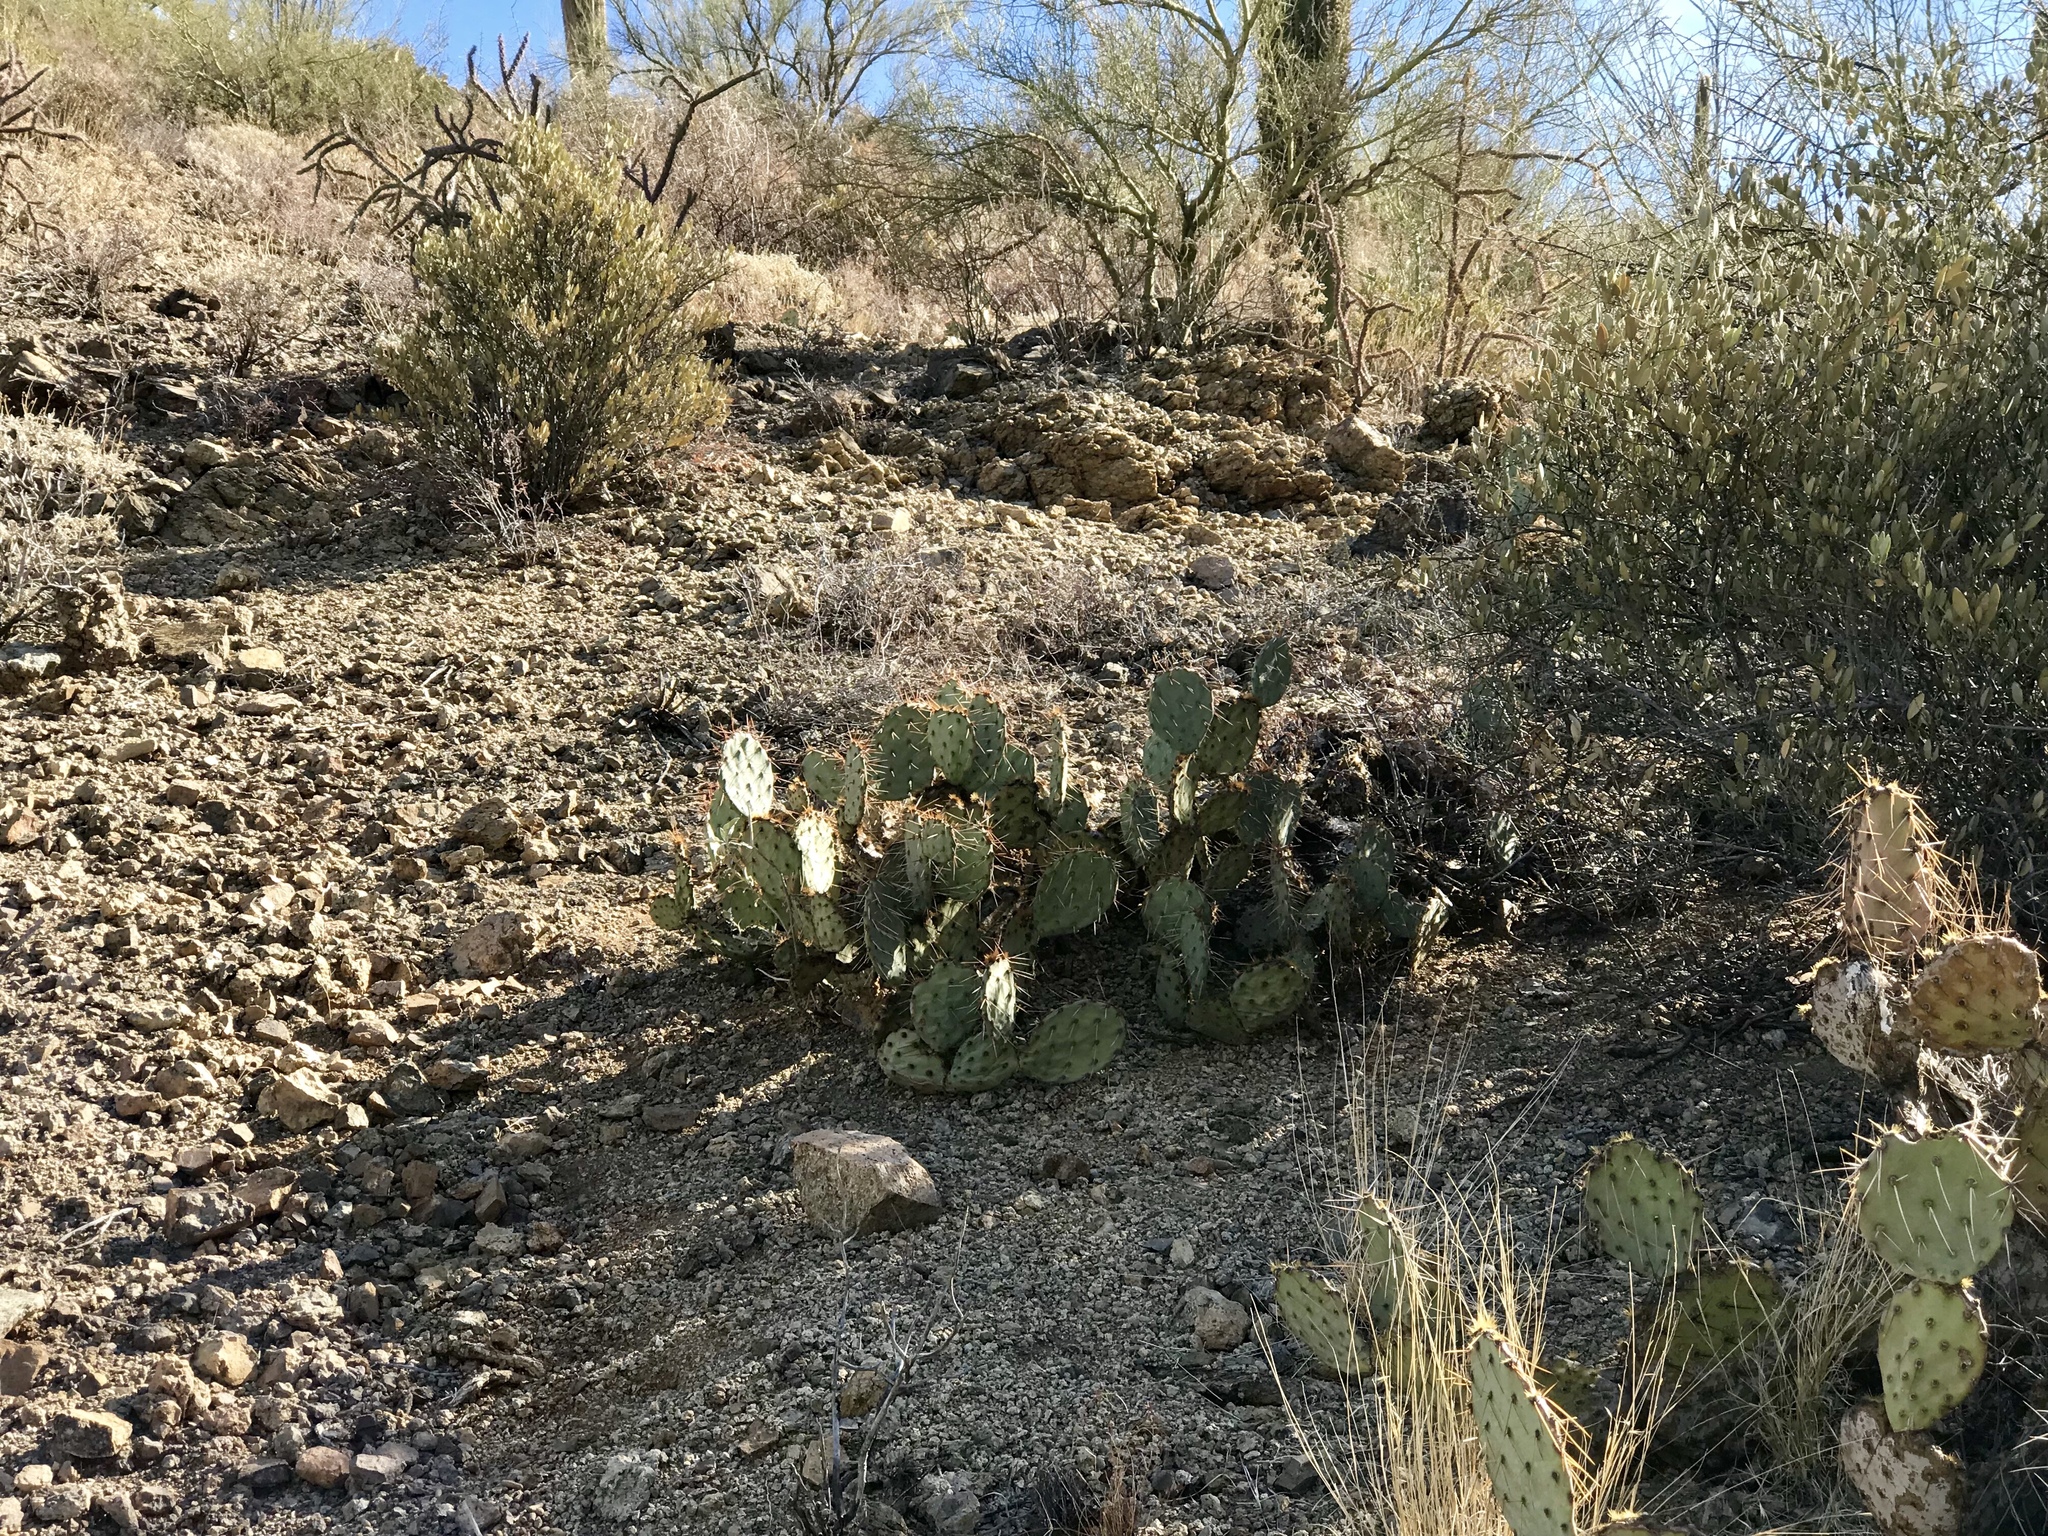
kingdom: Plantae
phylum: Tracheophyta
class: Magnoliopsida
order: Caryophyllales
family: Cactaceae
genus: Opuntia
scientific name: Opuntia engelmannii
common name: Cactus-apple
